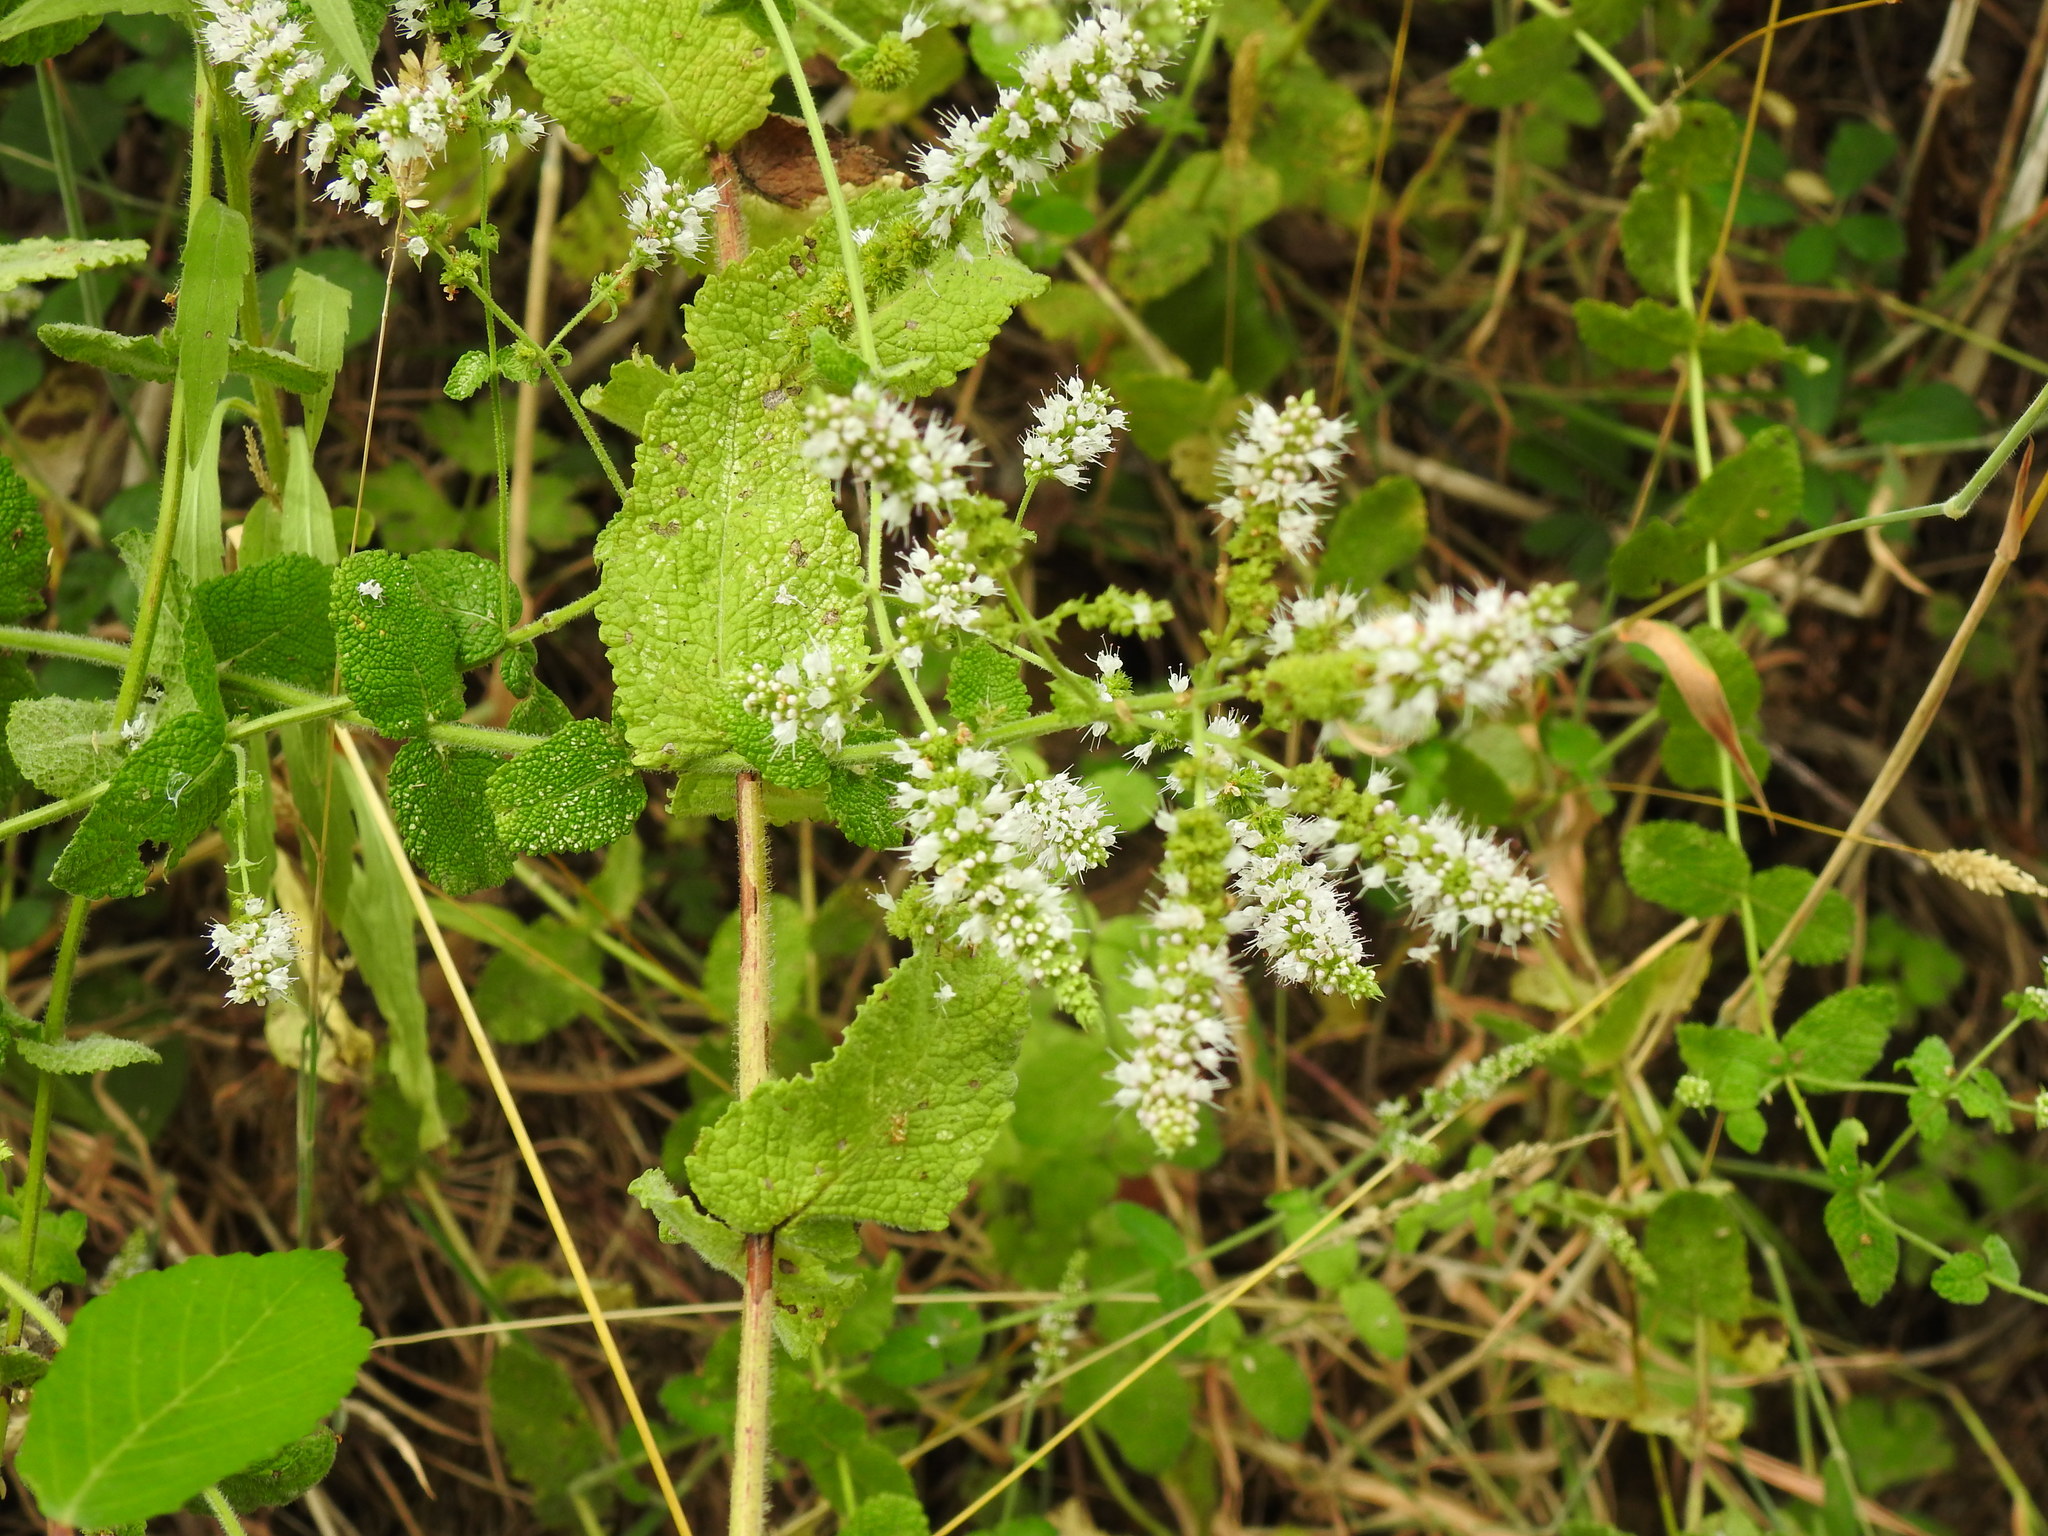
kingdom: Plantae
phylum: Tracheophyta
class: Magnoliopsida
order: Lamiales
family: Lamiaceae
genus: Mentha
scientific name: Mentha suaveolens
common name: Apple mint
